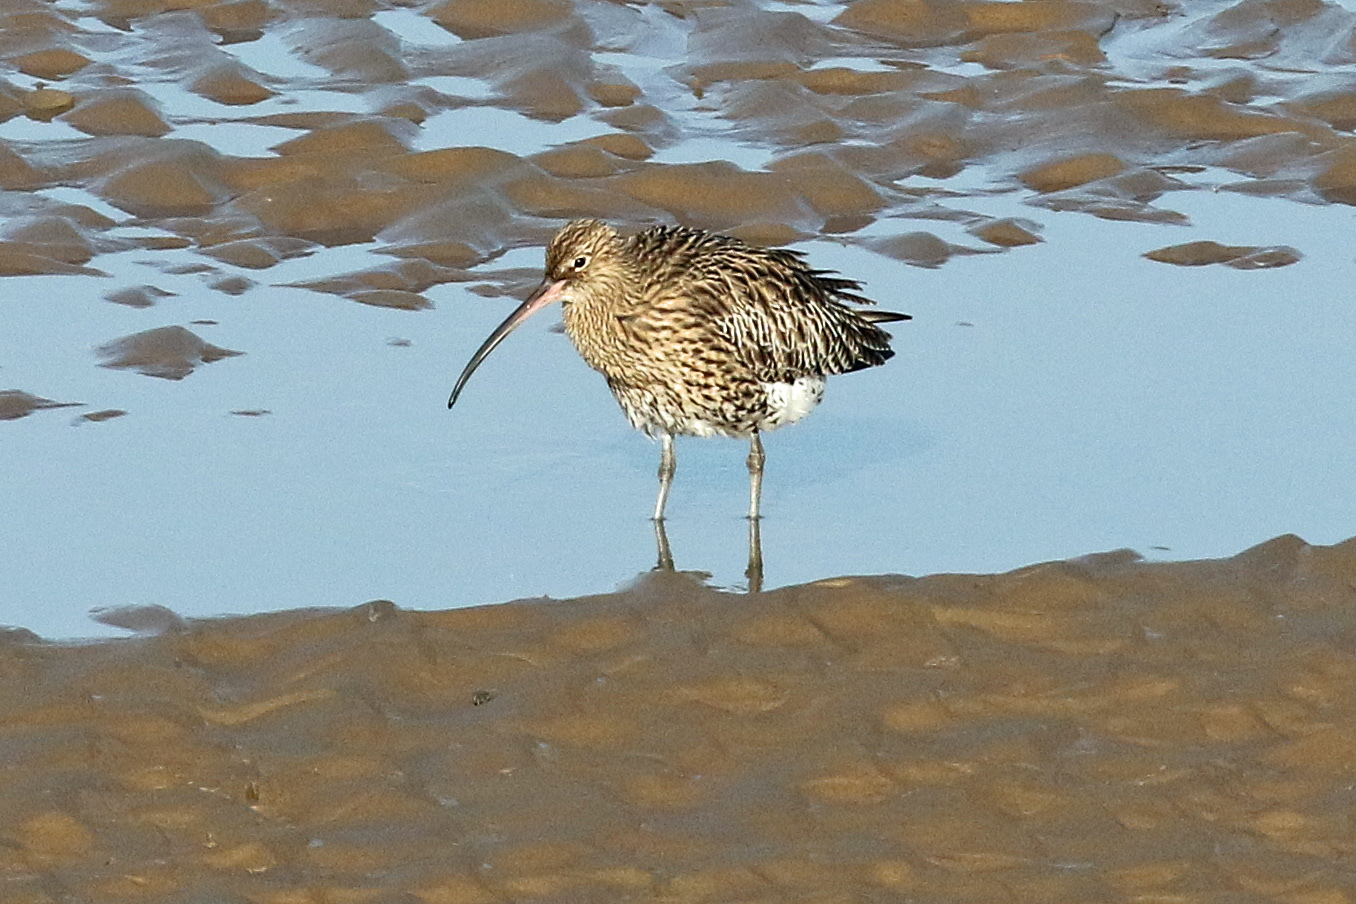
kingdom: Animalia
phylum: Chordata
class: Aves
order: Charadriiformes
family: Scolopacidae
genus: Numenius
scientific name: Numenius arquata
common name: Eurasian curlew
